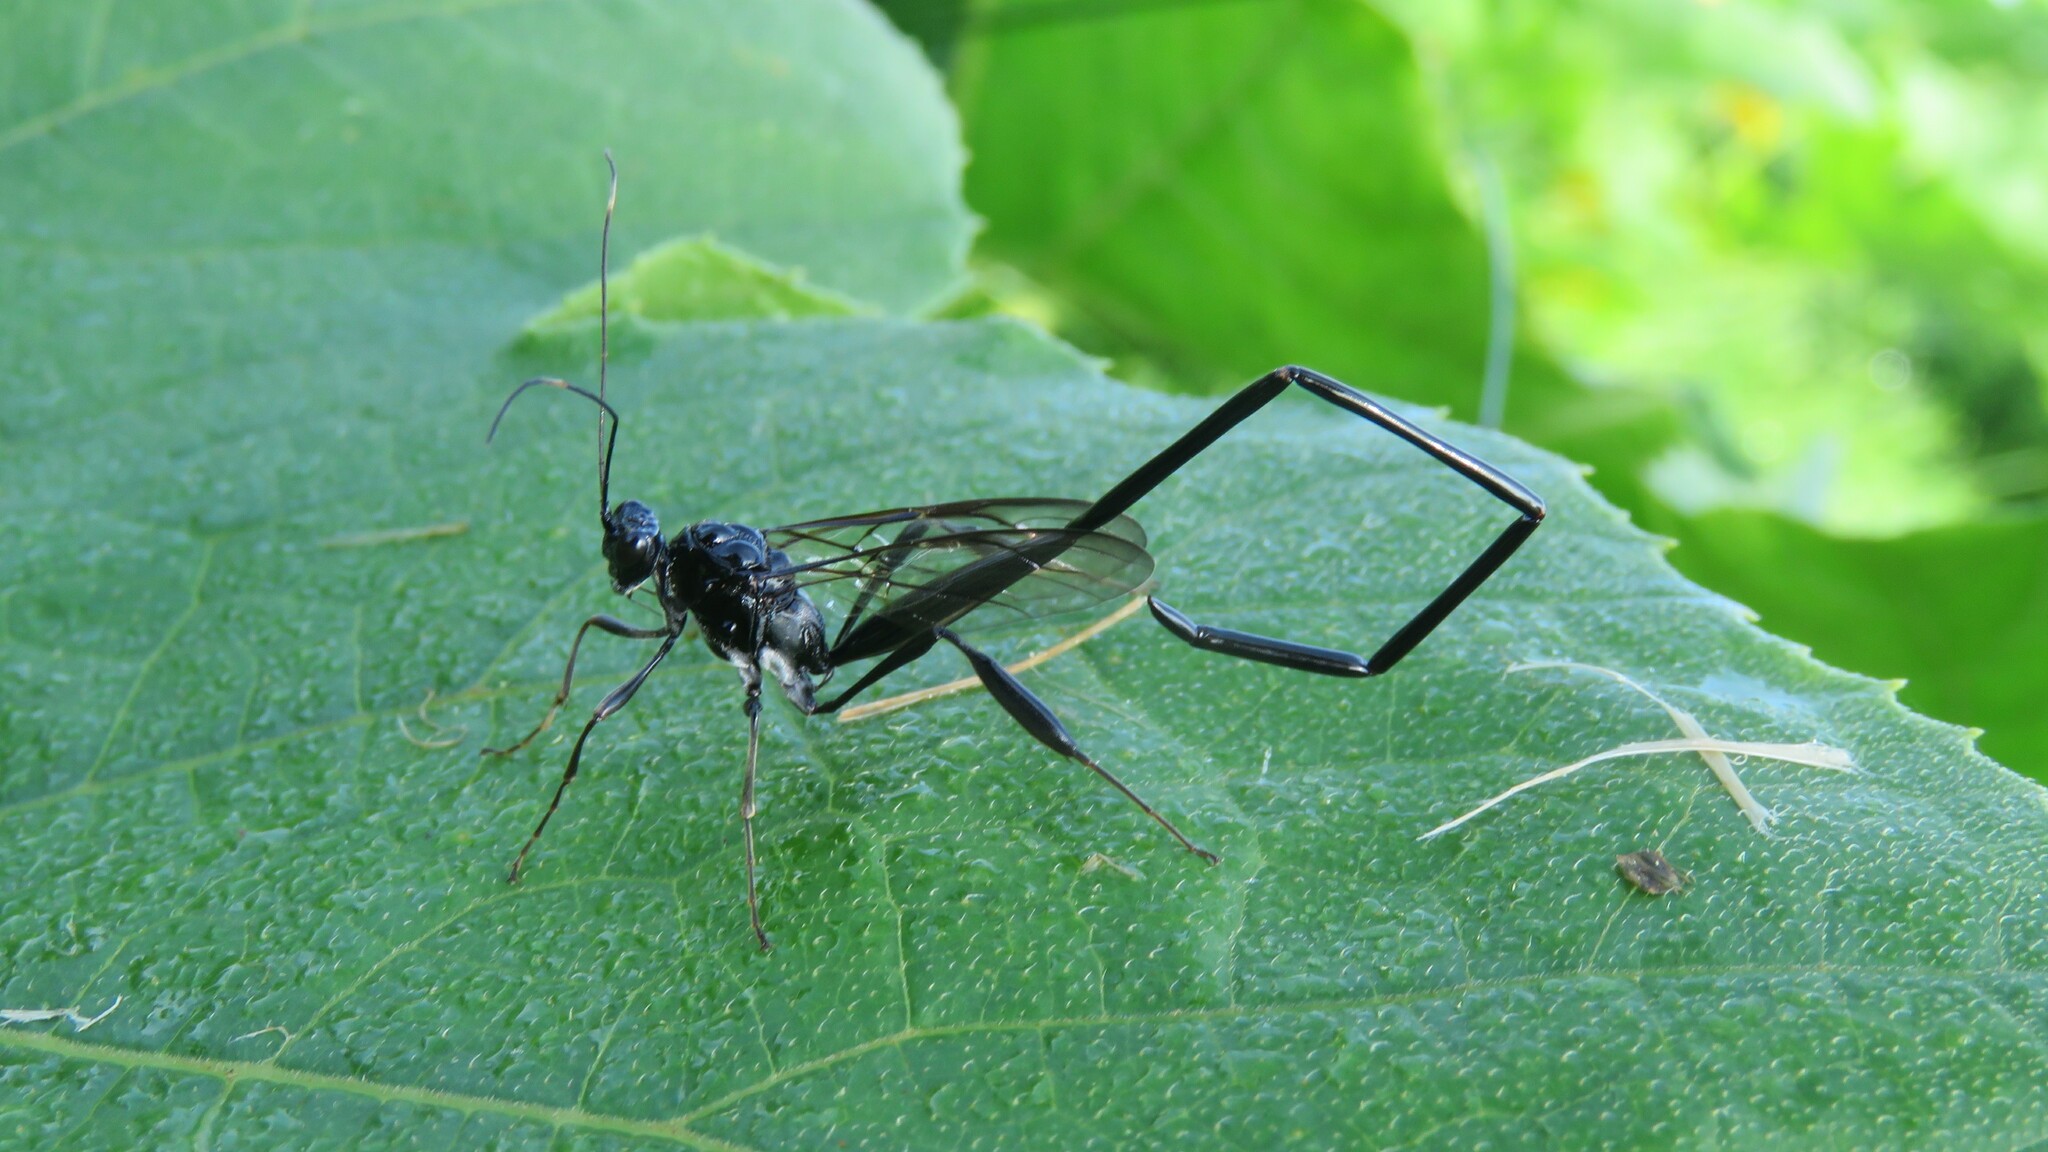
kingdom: Animalia
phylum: Arthropoda
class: Insecta
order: Hymenoptera
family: Pelecinidae
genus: Pelecinus
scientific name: Pelecinus polyturator
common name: American pelecinid wasp
